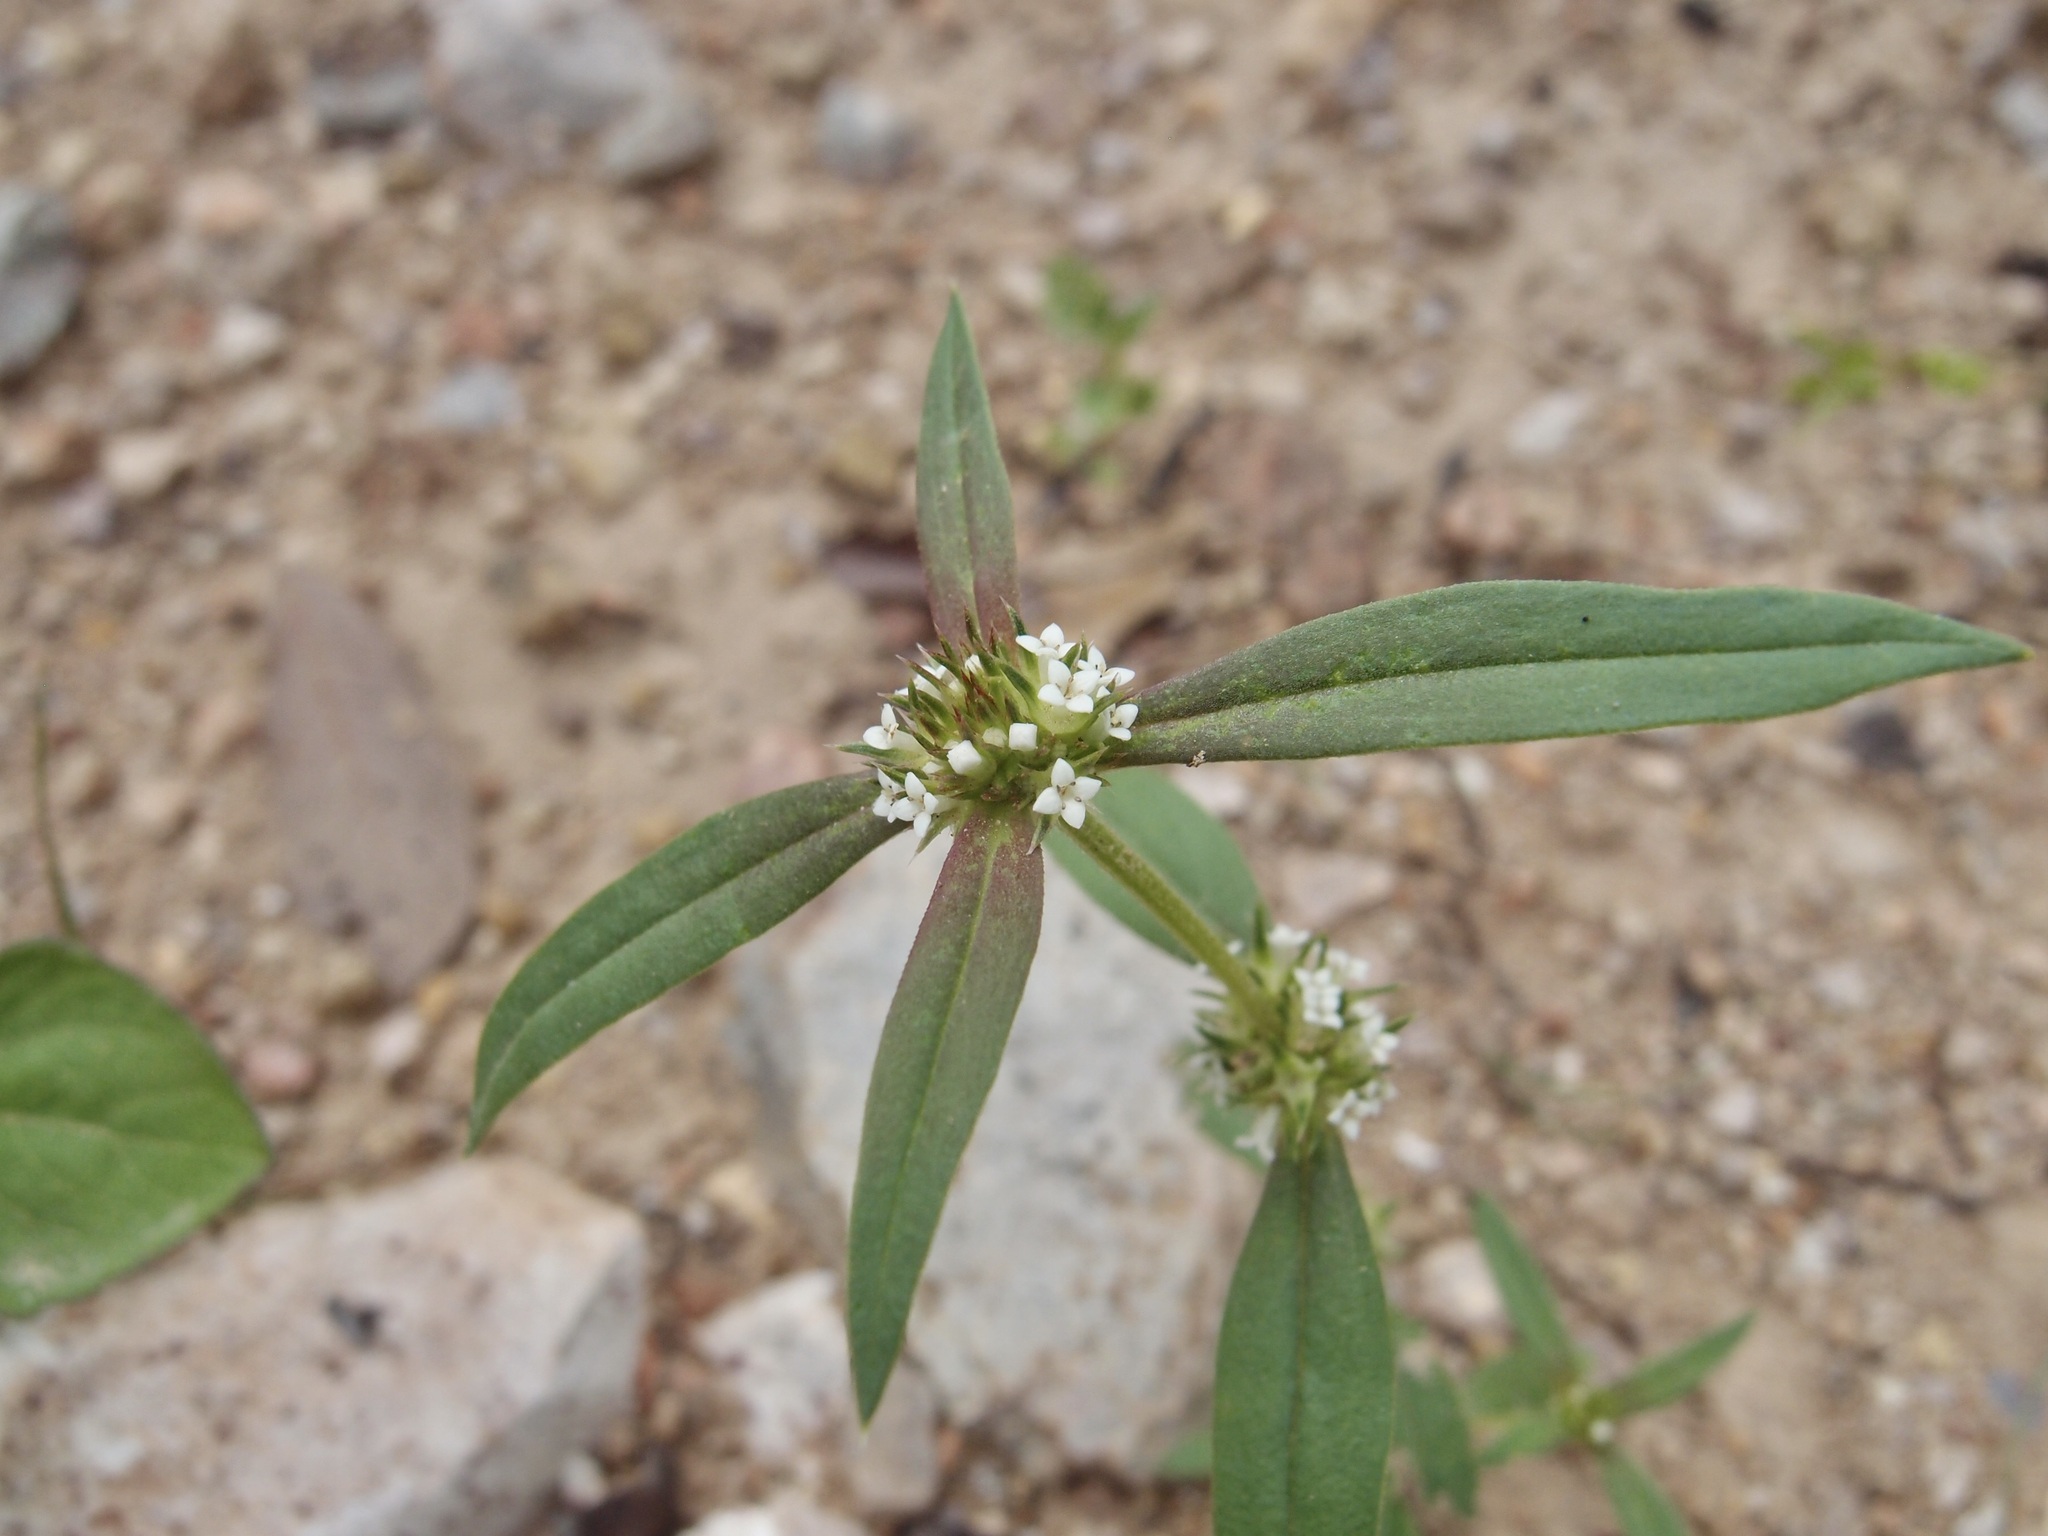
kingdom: Plantae
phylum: Tracheophyta
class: Magnoliopsida
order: Gentianales
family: Rubiaceae
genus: Mitracarpus
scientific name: Mitracarpus hirtus
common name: Tropical girdlepod
